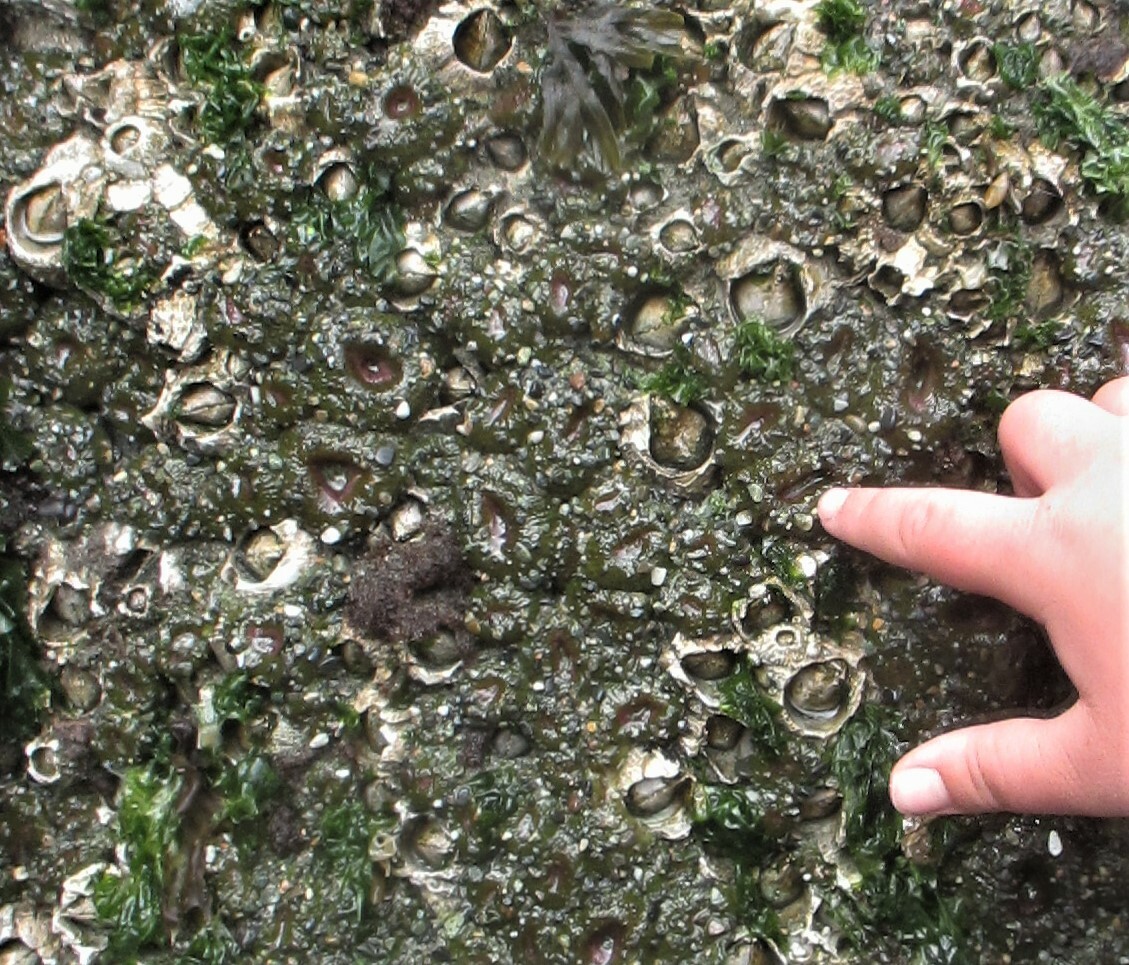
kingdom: Animalia
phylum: Cnidaria
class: Anthozoa
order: Actiniaria
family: Actiniidae
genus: Anthopleura
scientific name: Anthopleura elegantissima
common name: Clonal anemone
